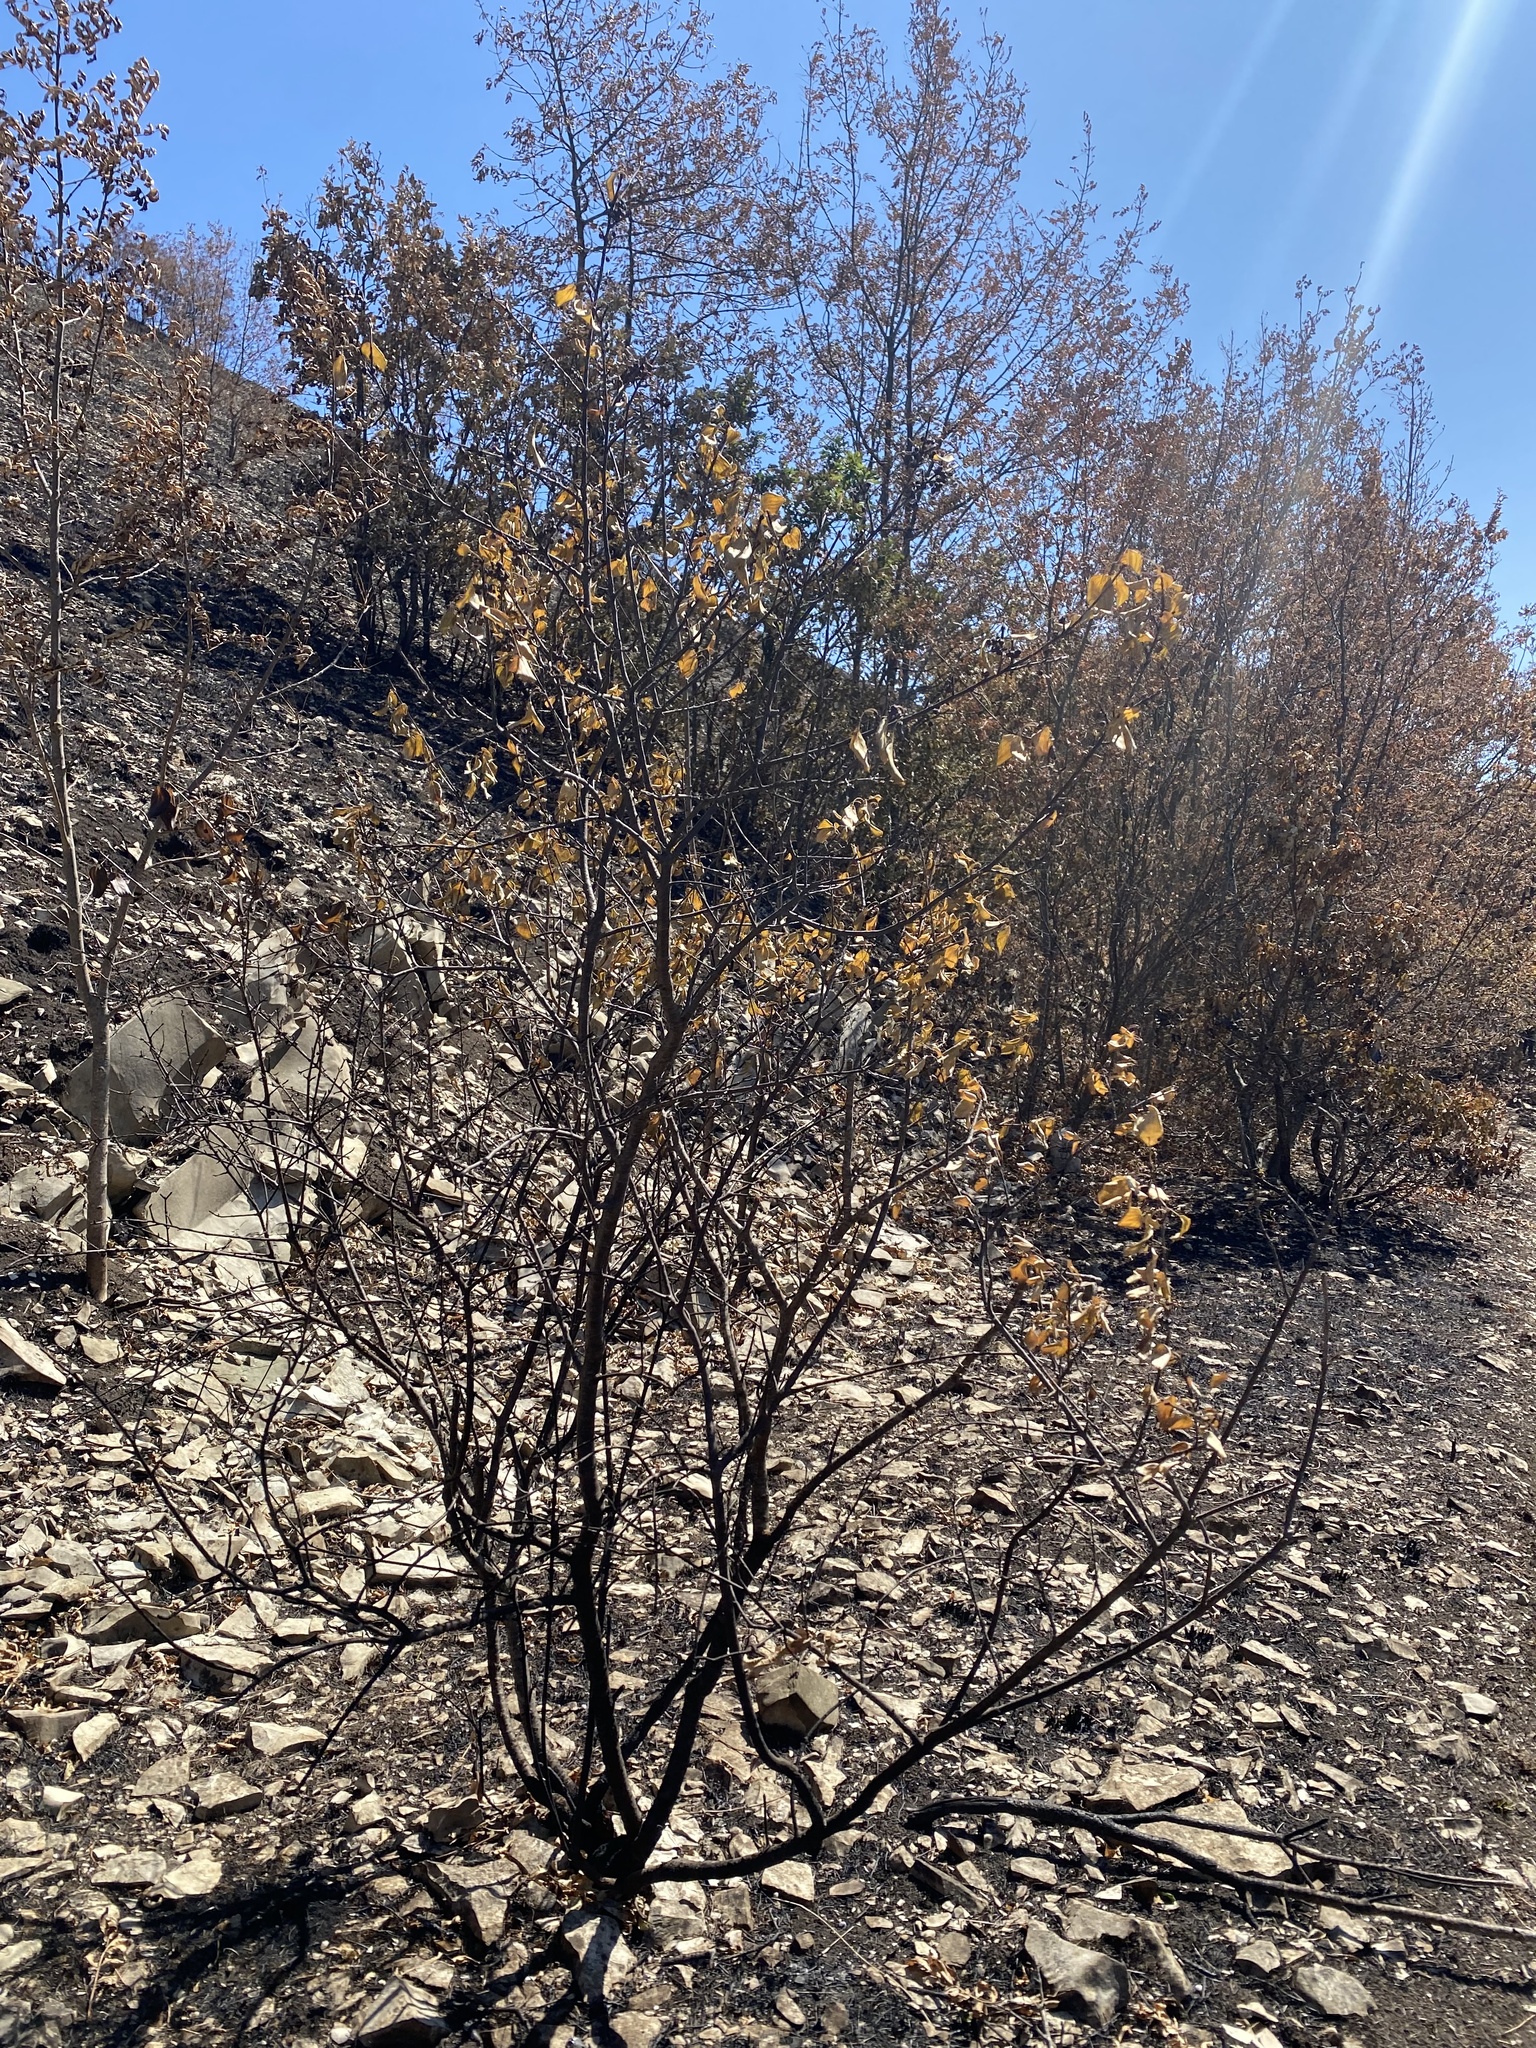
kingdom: Plantae
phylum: Tracheophyta
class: Magnoliopsida
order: Rosales
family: Rhamnaceae
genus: Rhamnus
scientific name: Rhamnus cathartica
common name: Common buckthorn
